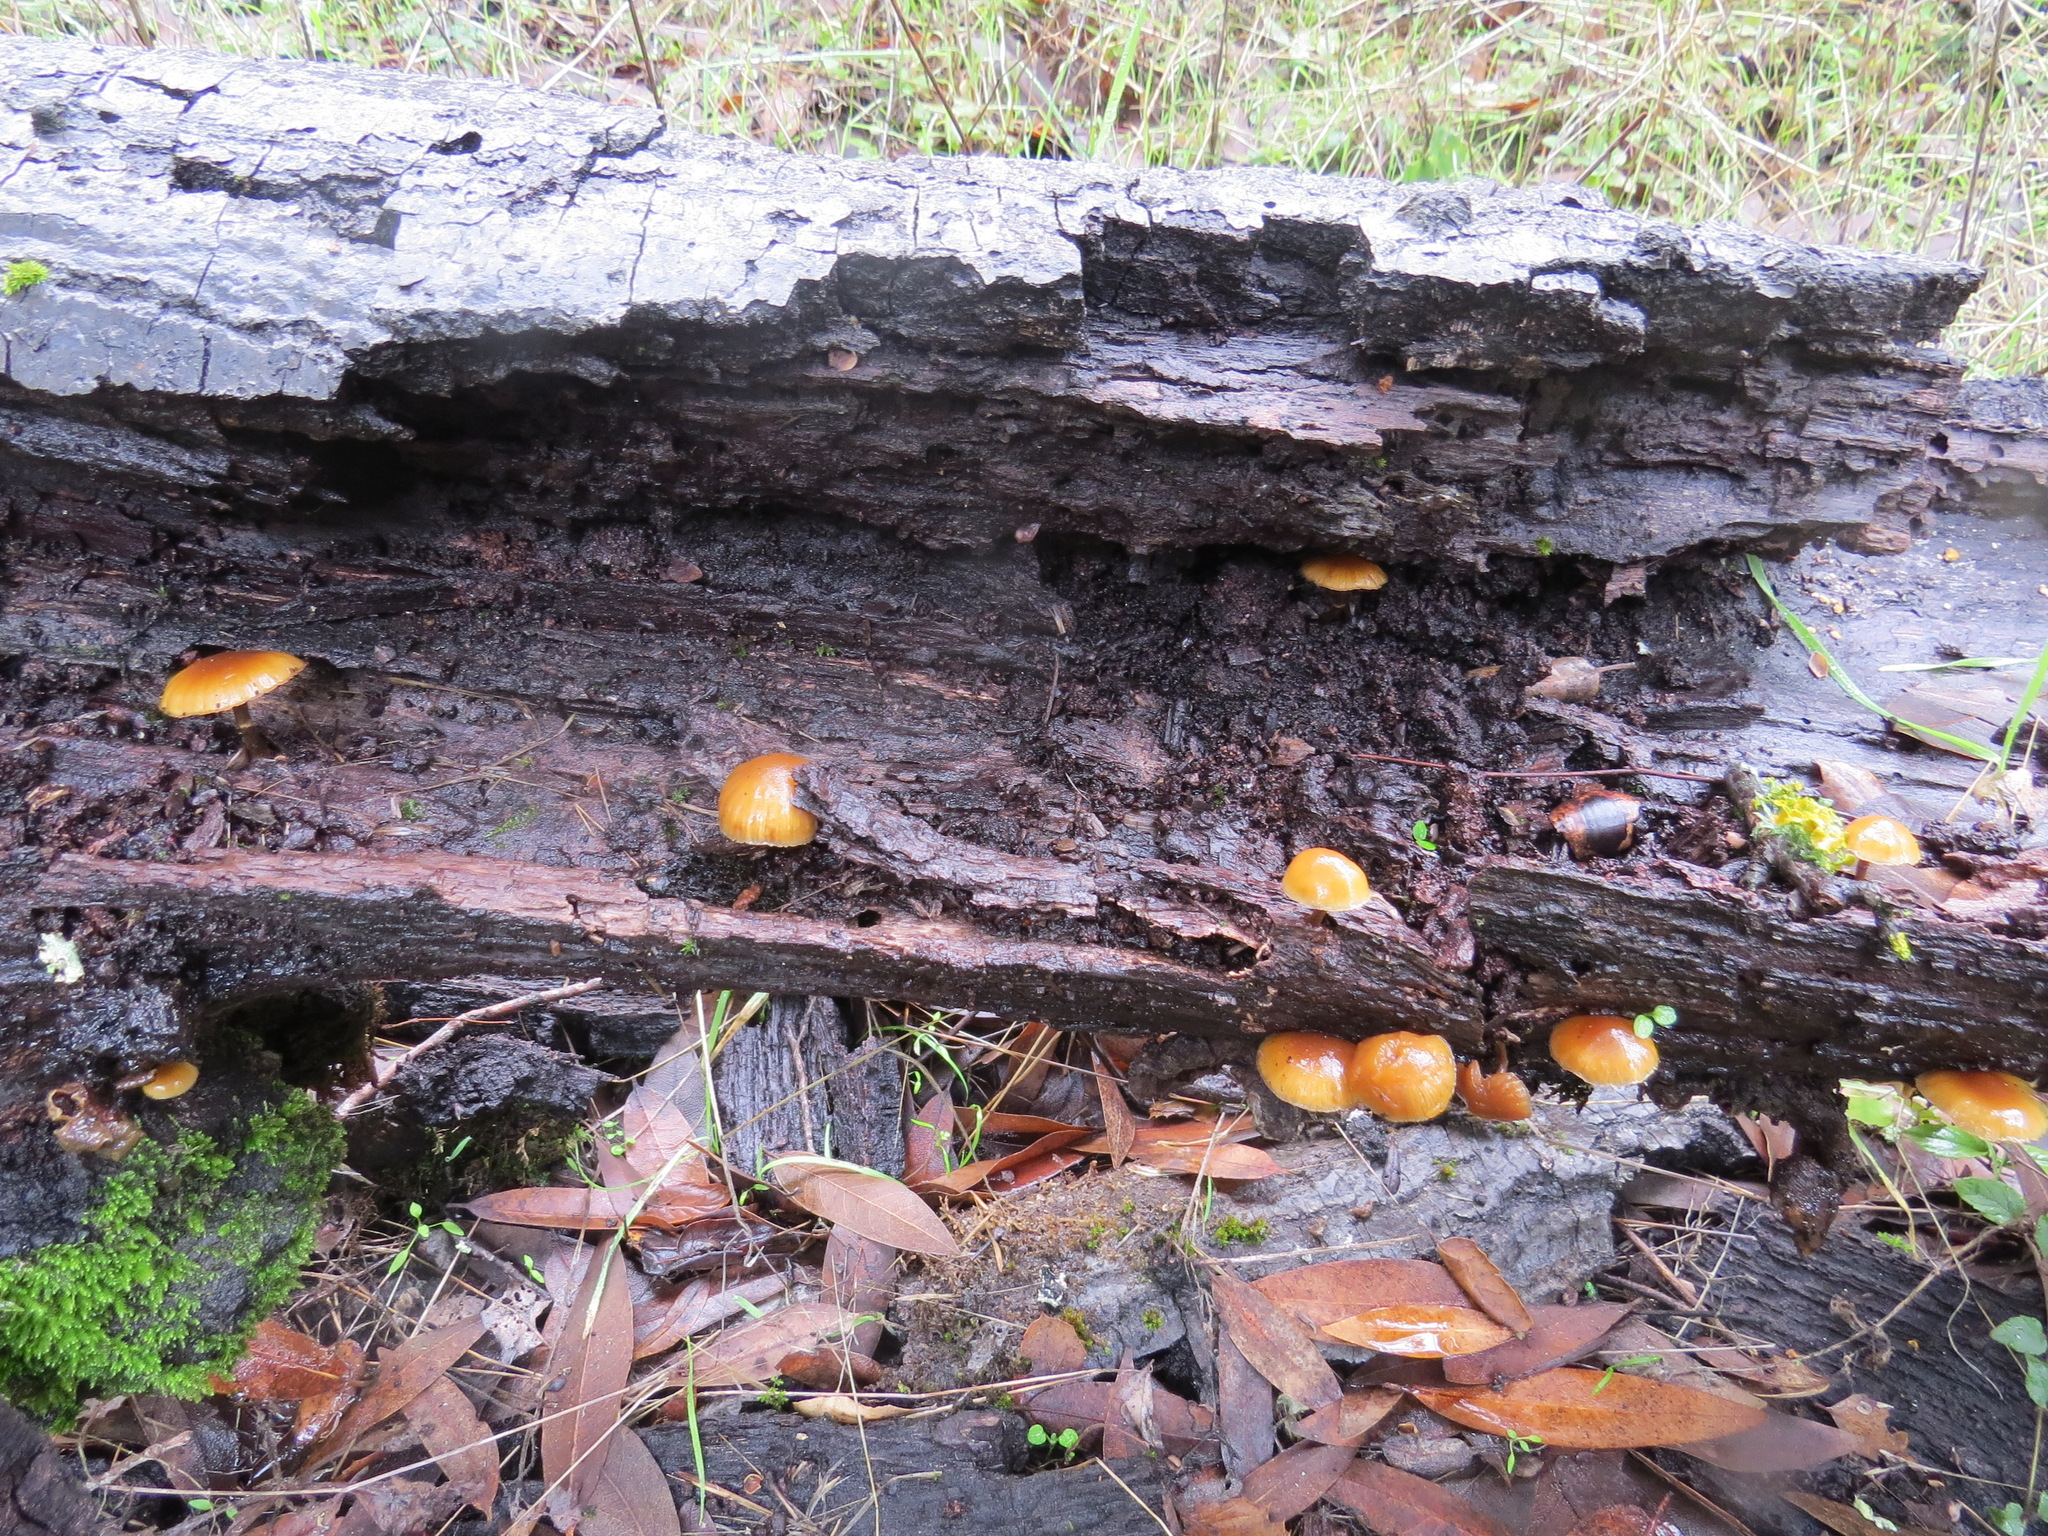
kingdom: Fungi
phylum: Basidiomycota
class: Agaricomycetes
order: Agaricales
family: Hymenogastraceae
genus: Galerina
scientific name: Galerina marginata
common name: Funeral bell
